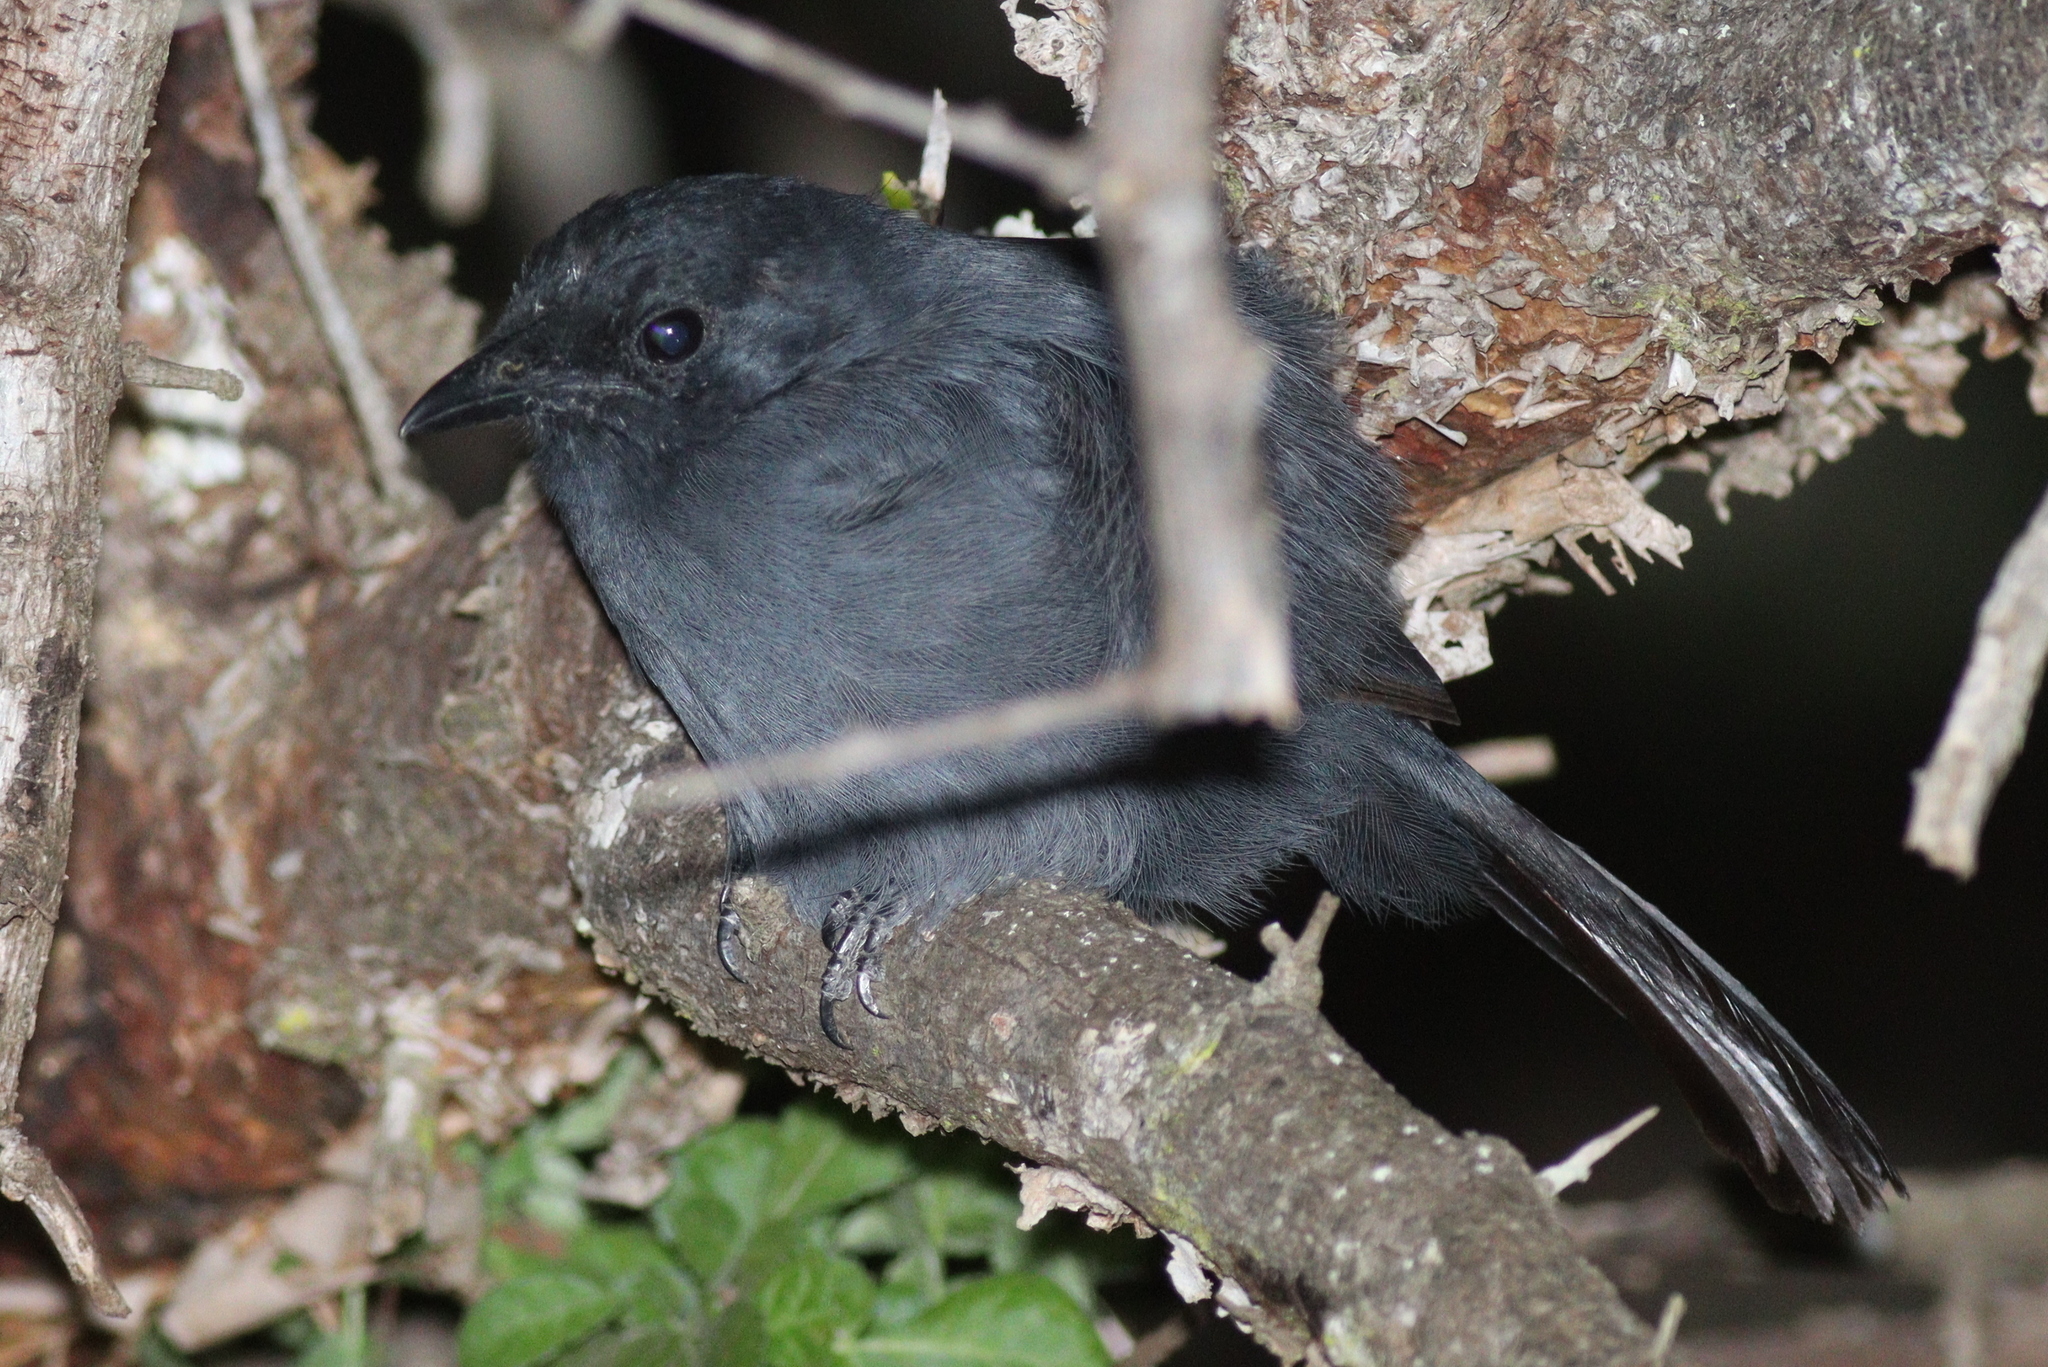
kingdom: Animalia
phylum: Chordata
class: Aves
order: Passeriformes
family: Malaconotidae
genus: Laniarius
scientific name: Laniarius funebris
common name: Slate-colored boubou
